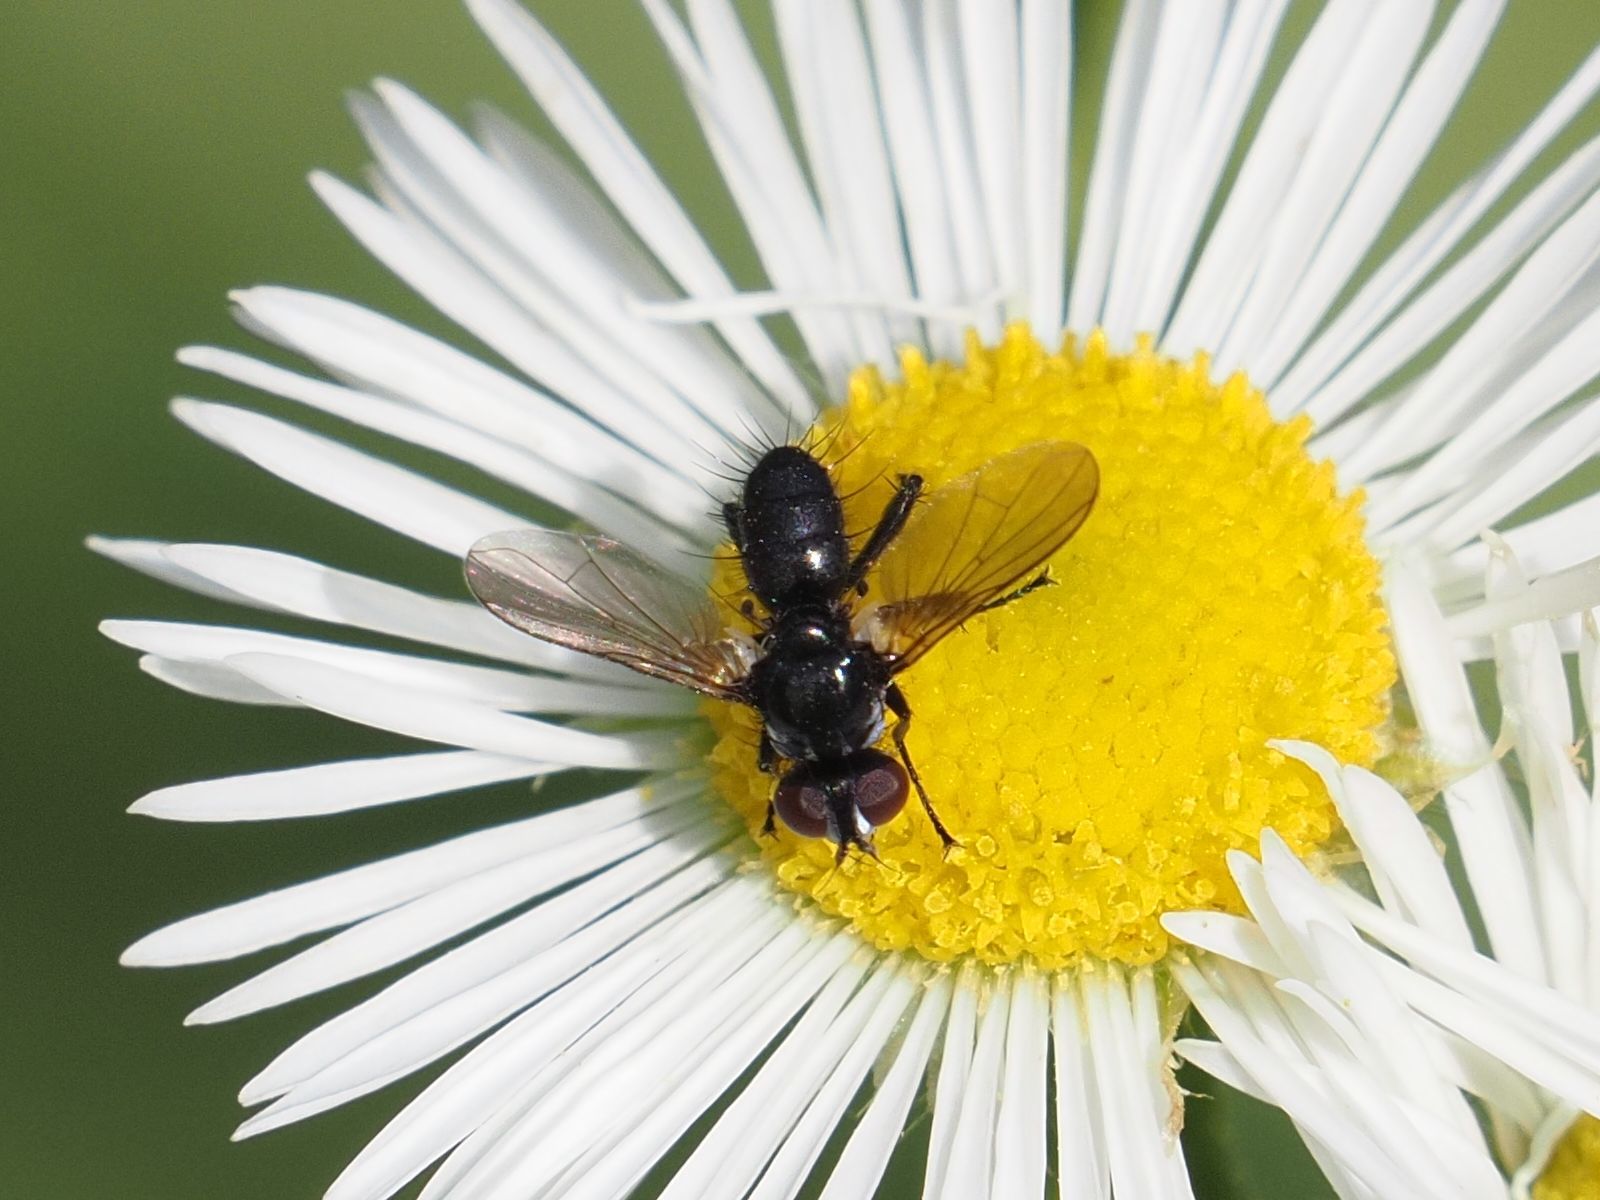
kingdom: Animalia
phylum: Arthropoda
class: Insecta
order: Diptera
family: Tachinidae
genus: Phania
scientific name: Phania funesta
